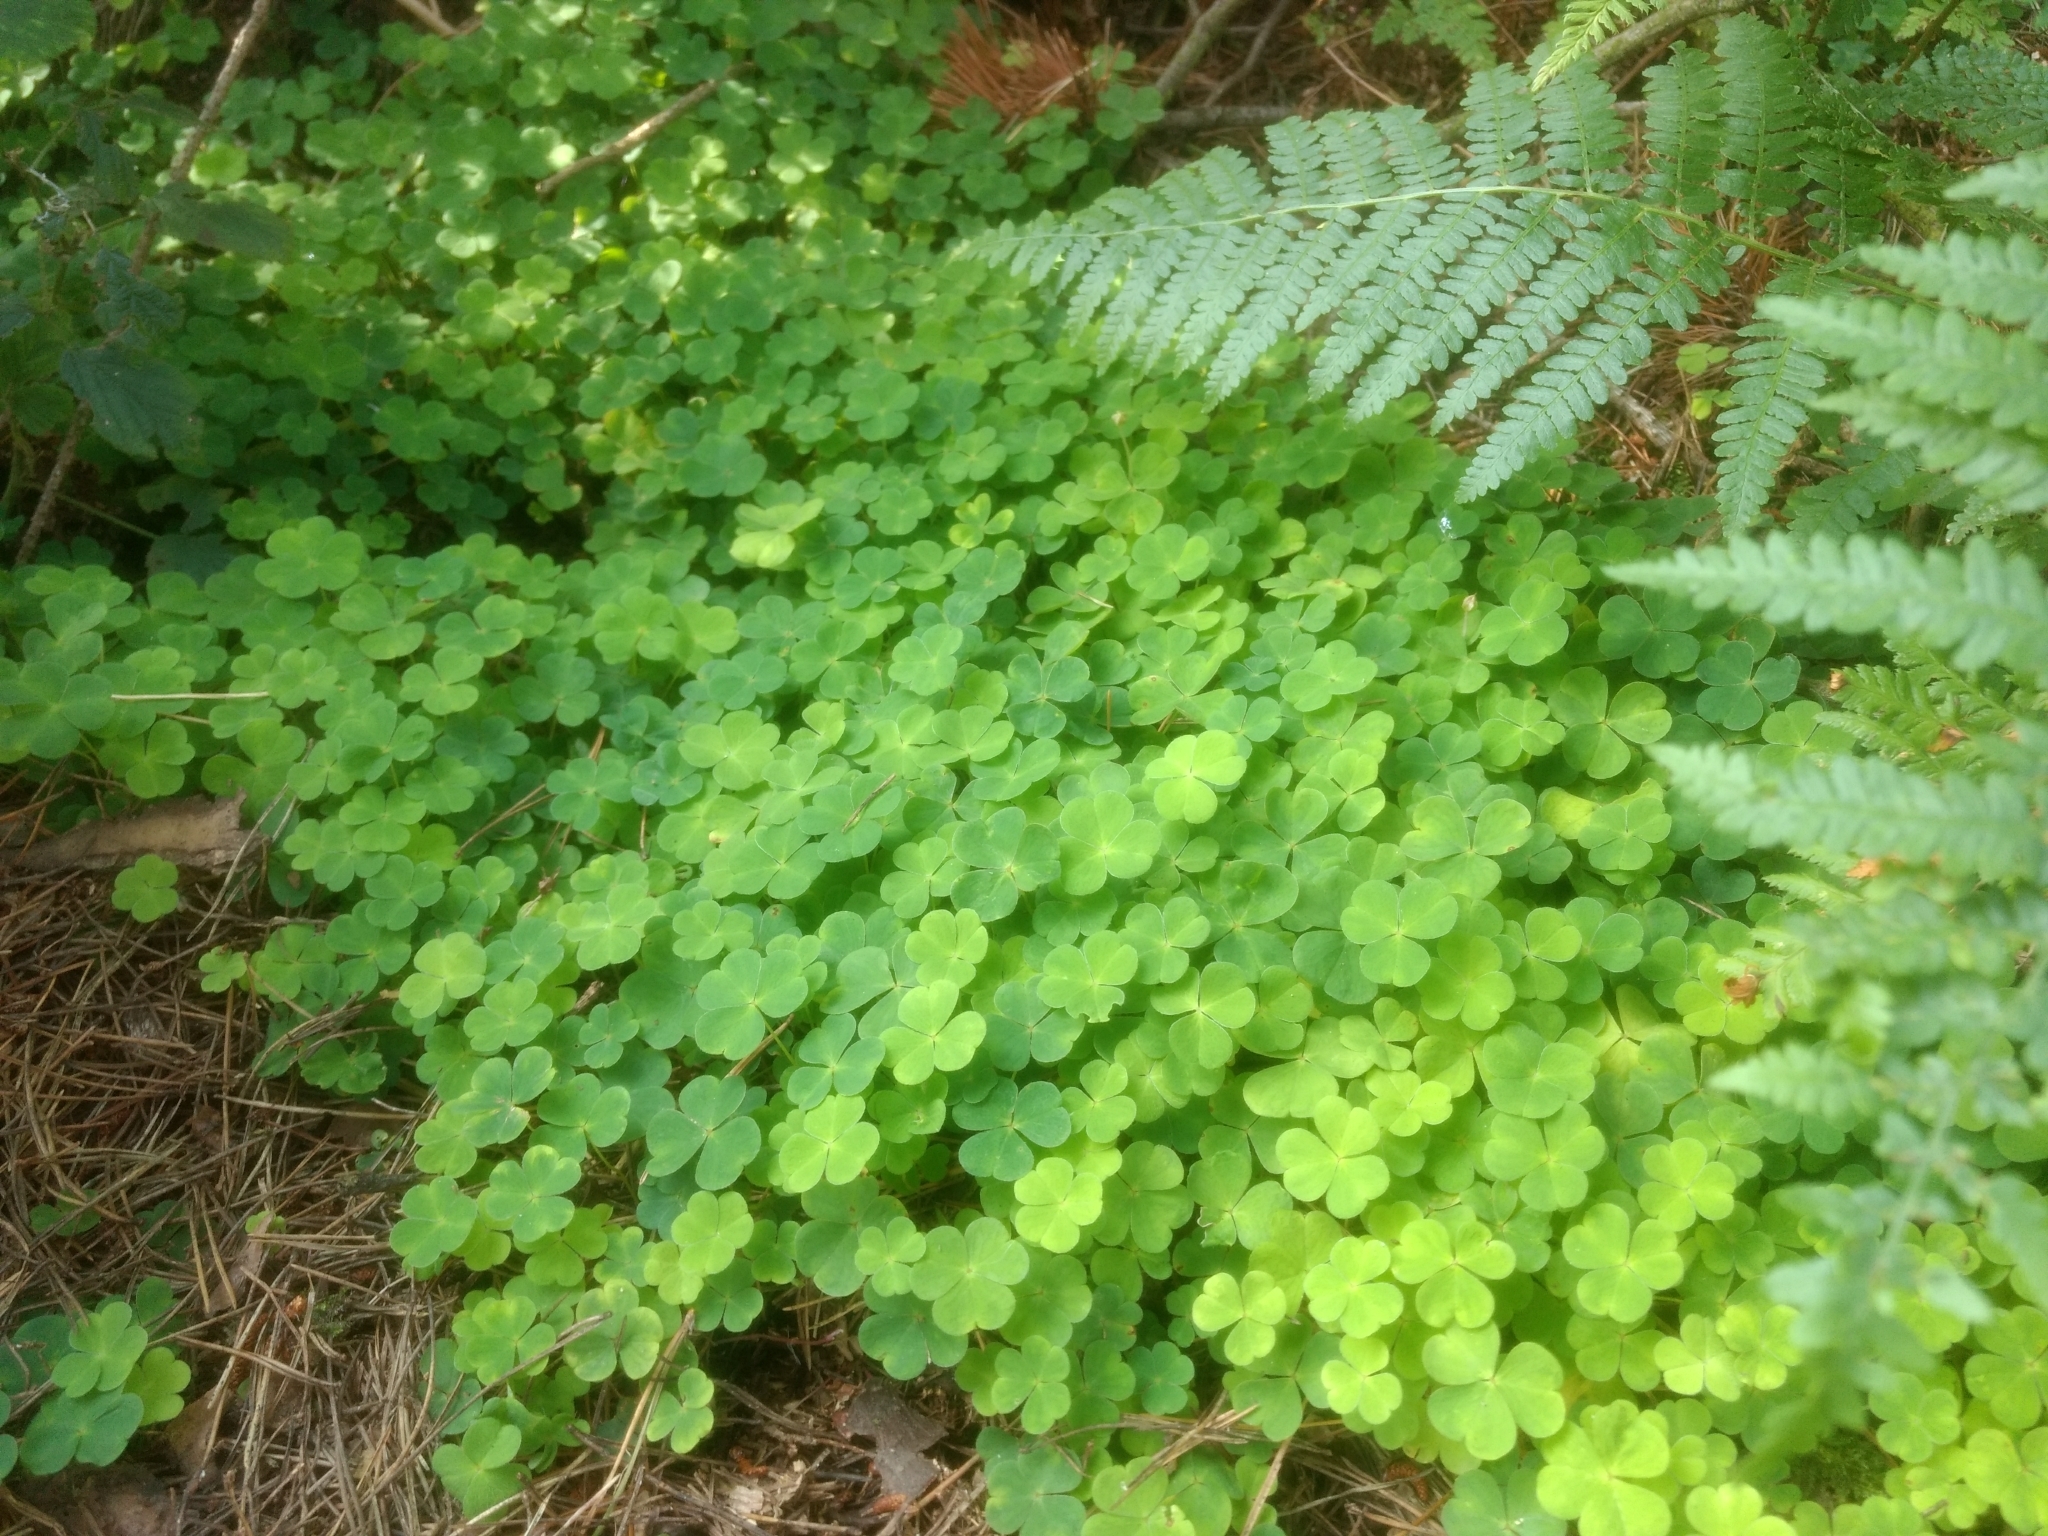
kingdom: Plantae
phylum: Tracheophyta
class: Magnoliopsida
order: Oxalidales
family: Oxalidaceae
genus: Oxalis
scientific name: Oxalis acetosella
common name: Wood-sorrel
